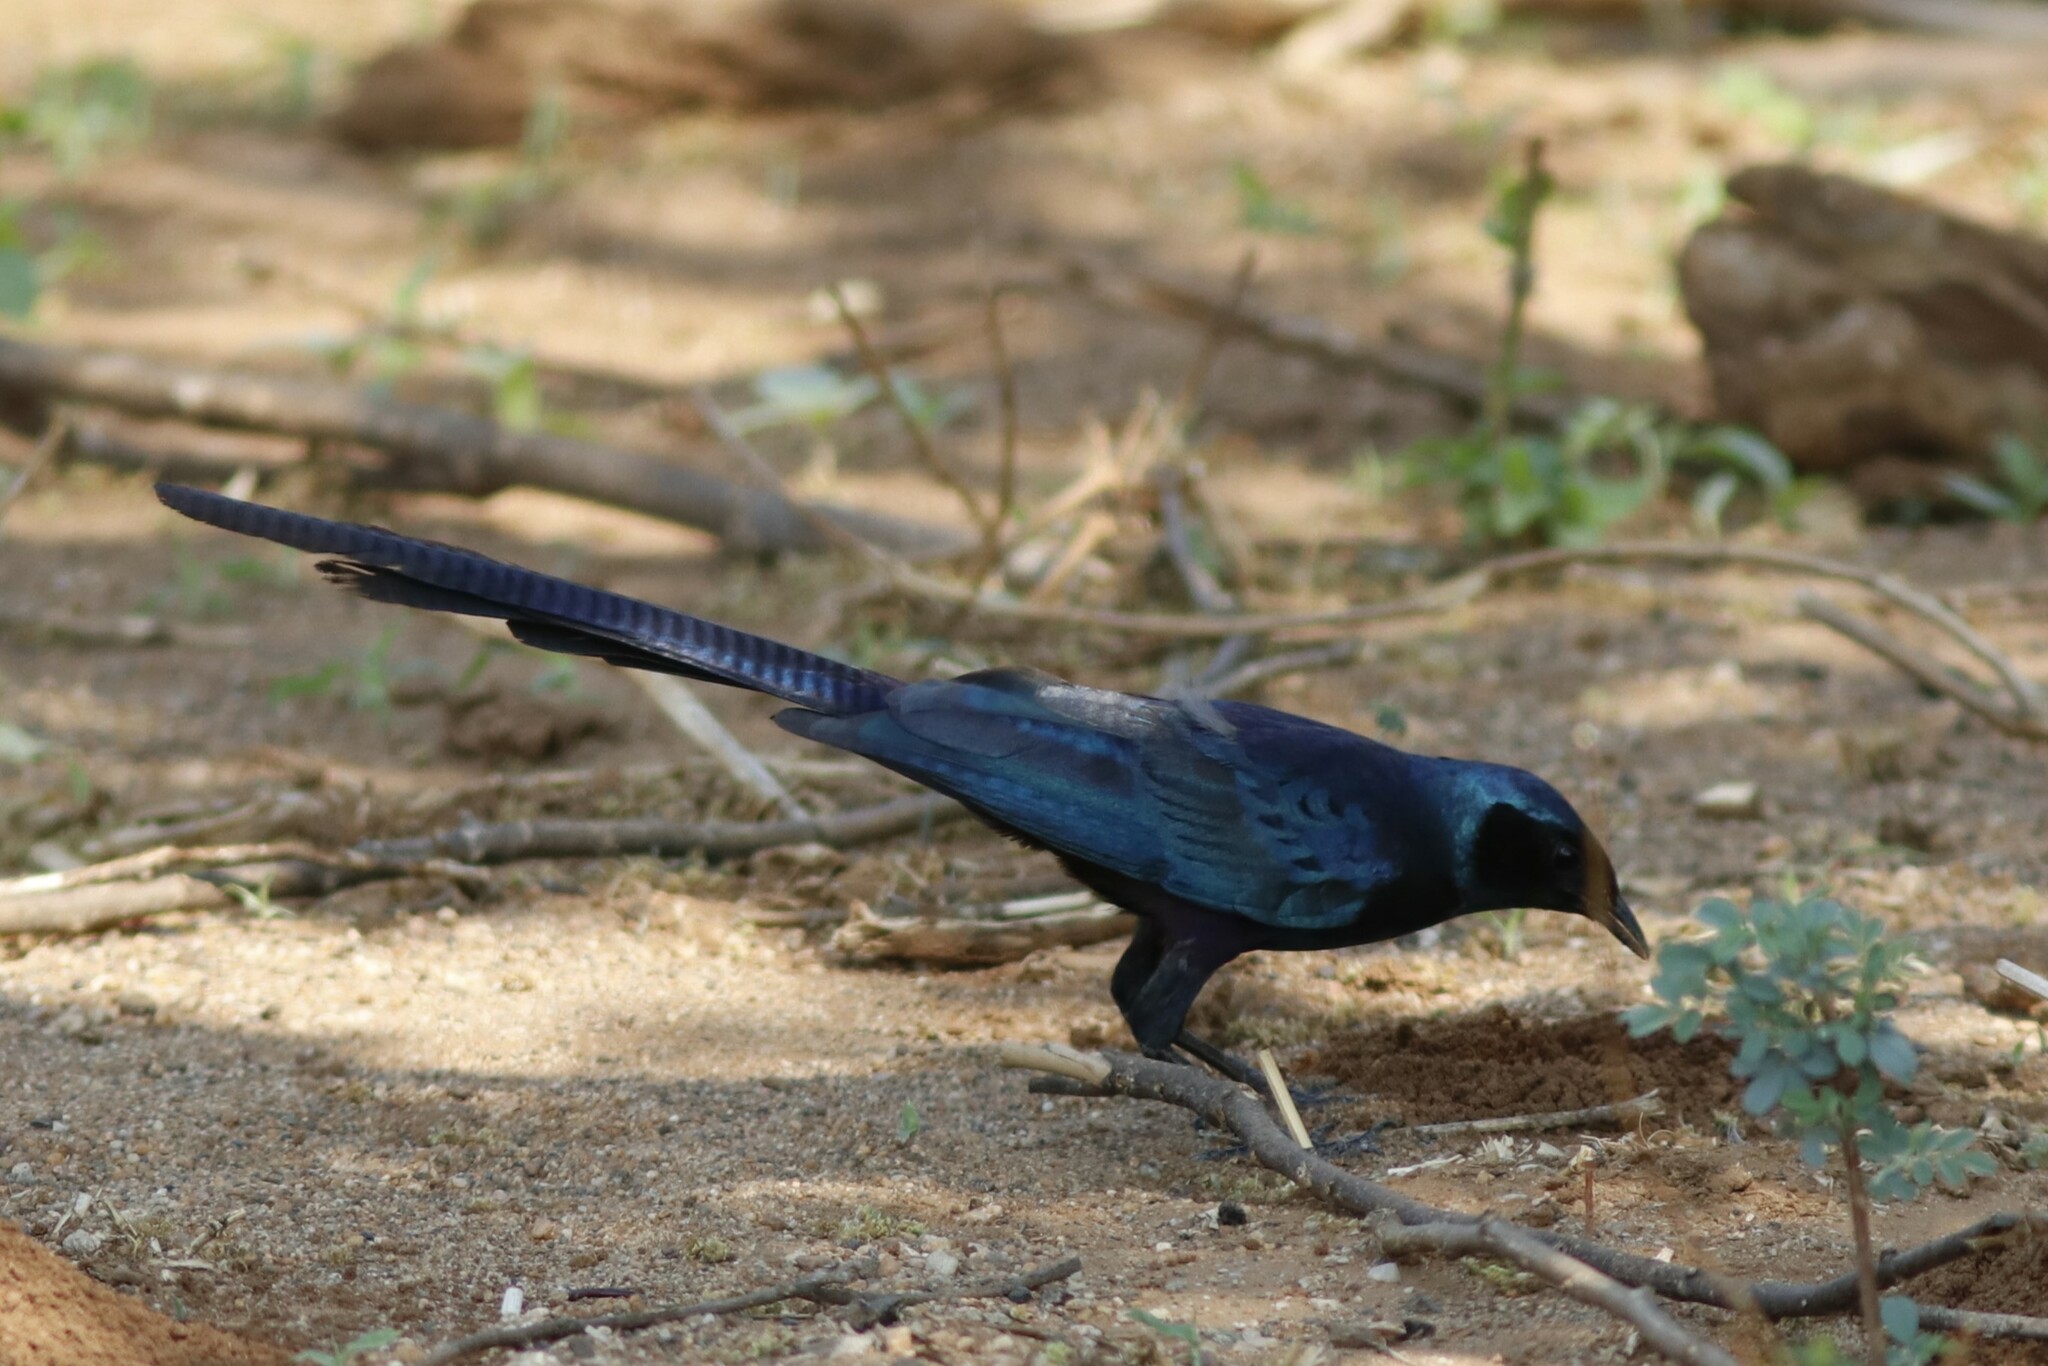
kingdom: Animalia
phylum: Chordata
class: Aves
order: Passeriformes
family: Sturnidae
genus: Lamprotornis
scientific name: Lamprotornis mevesii
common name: Meves's starling
